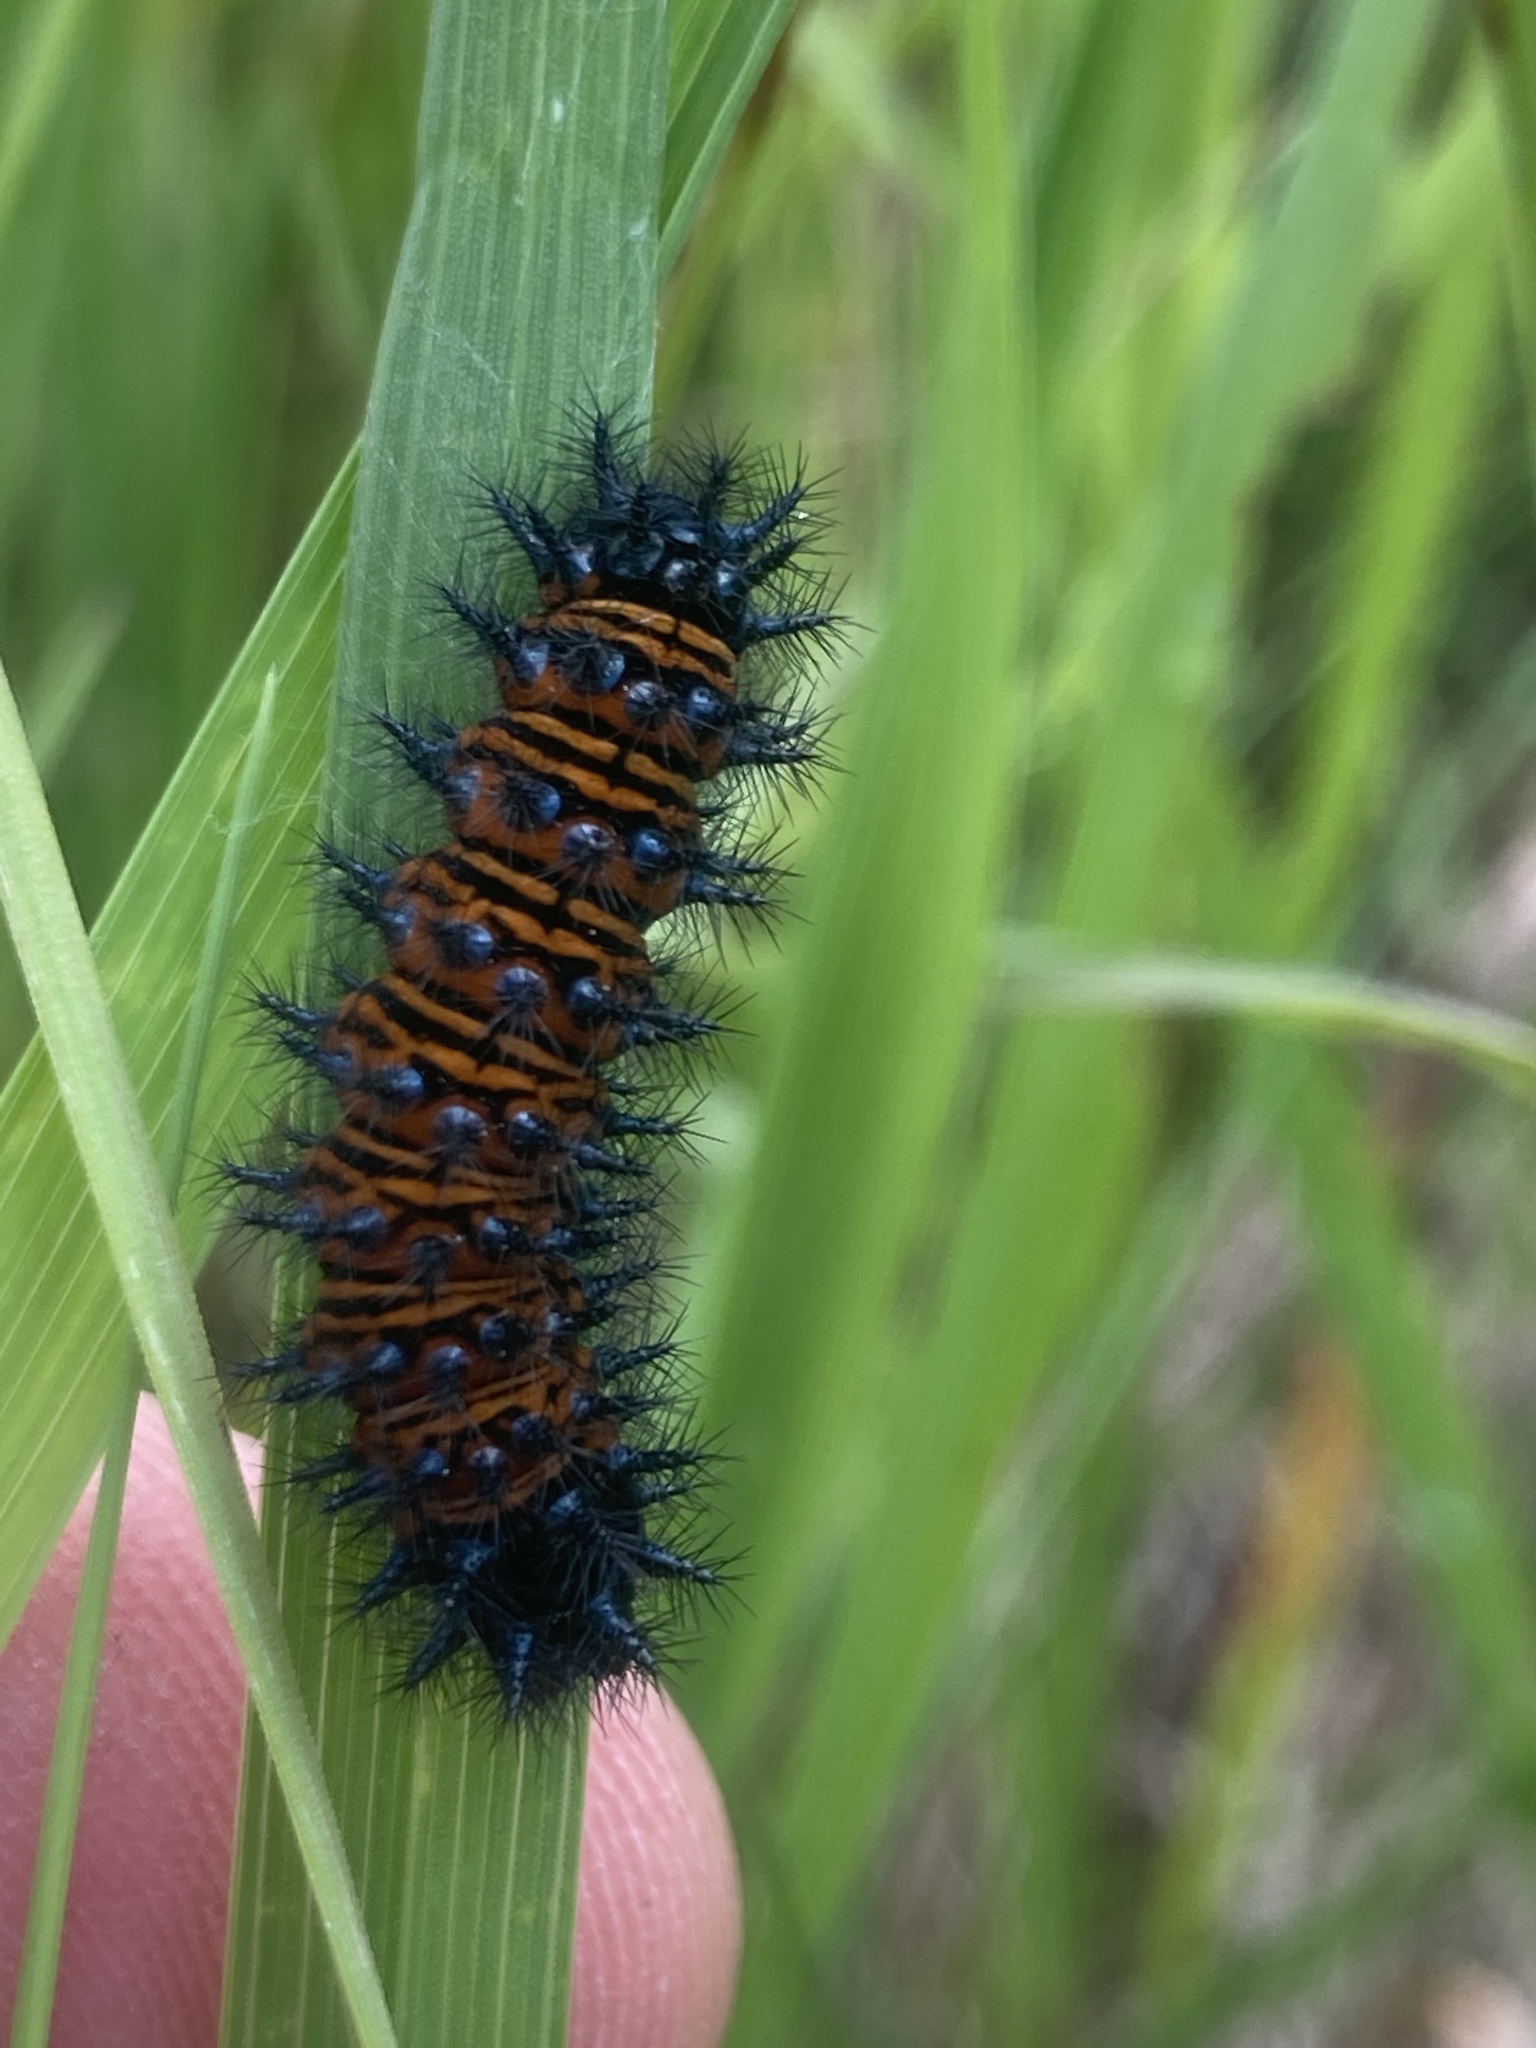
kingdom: Animalia
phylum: Arthropoda
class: Insecta
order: Lepidoptera
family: Nymphalidae
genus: Euphydryas
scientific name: Euphydryas phaeton
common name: Baltimore checkerspot
